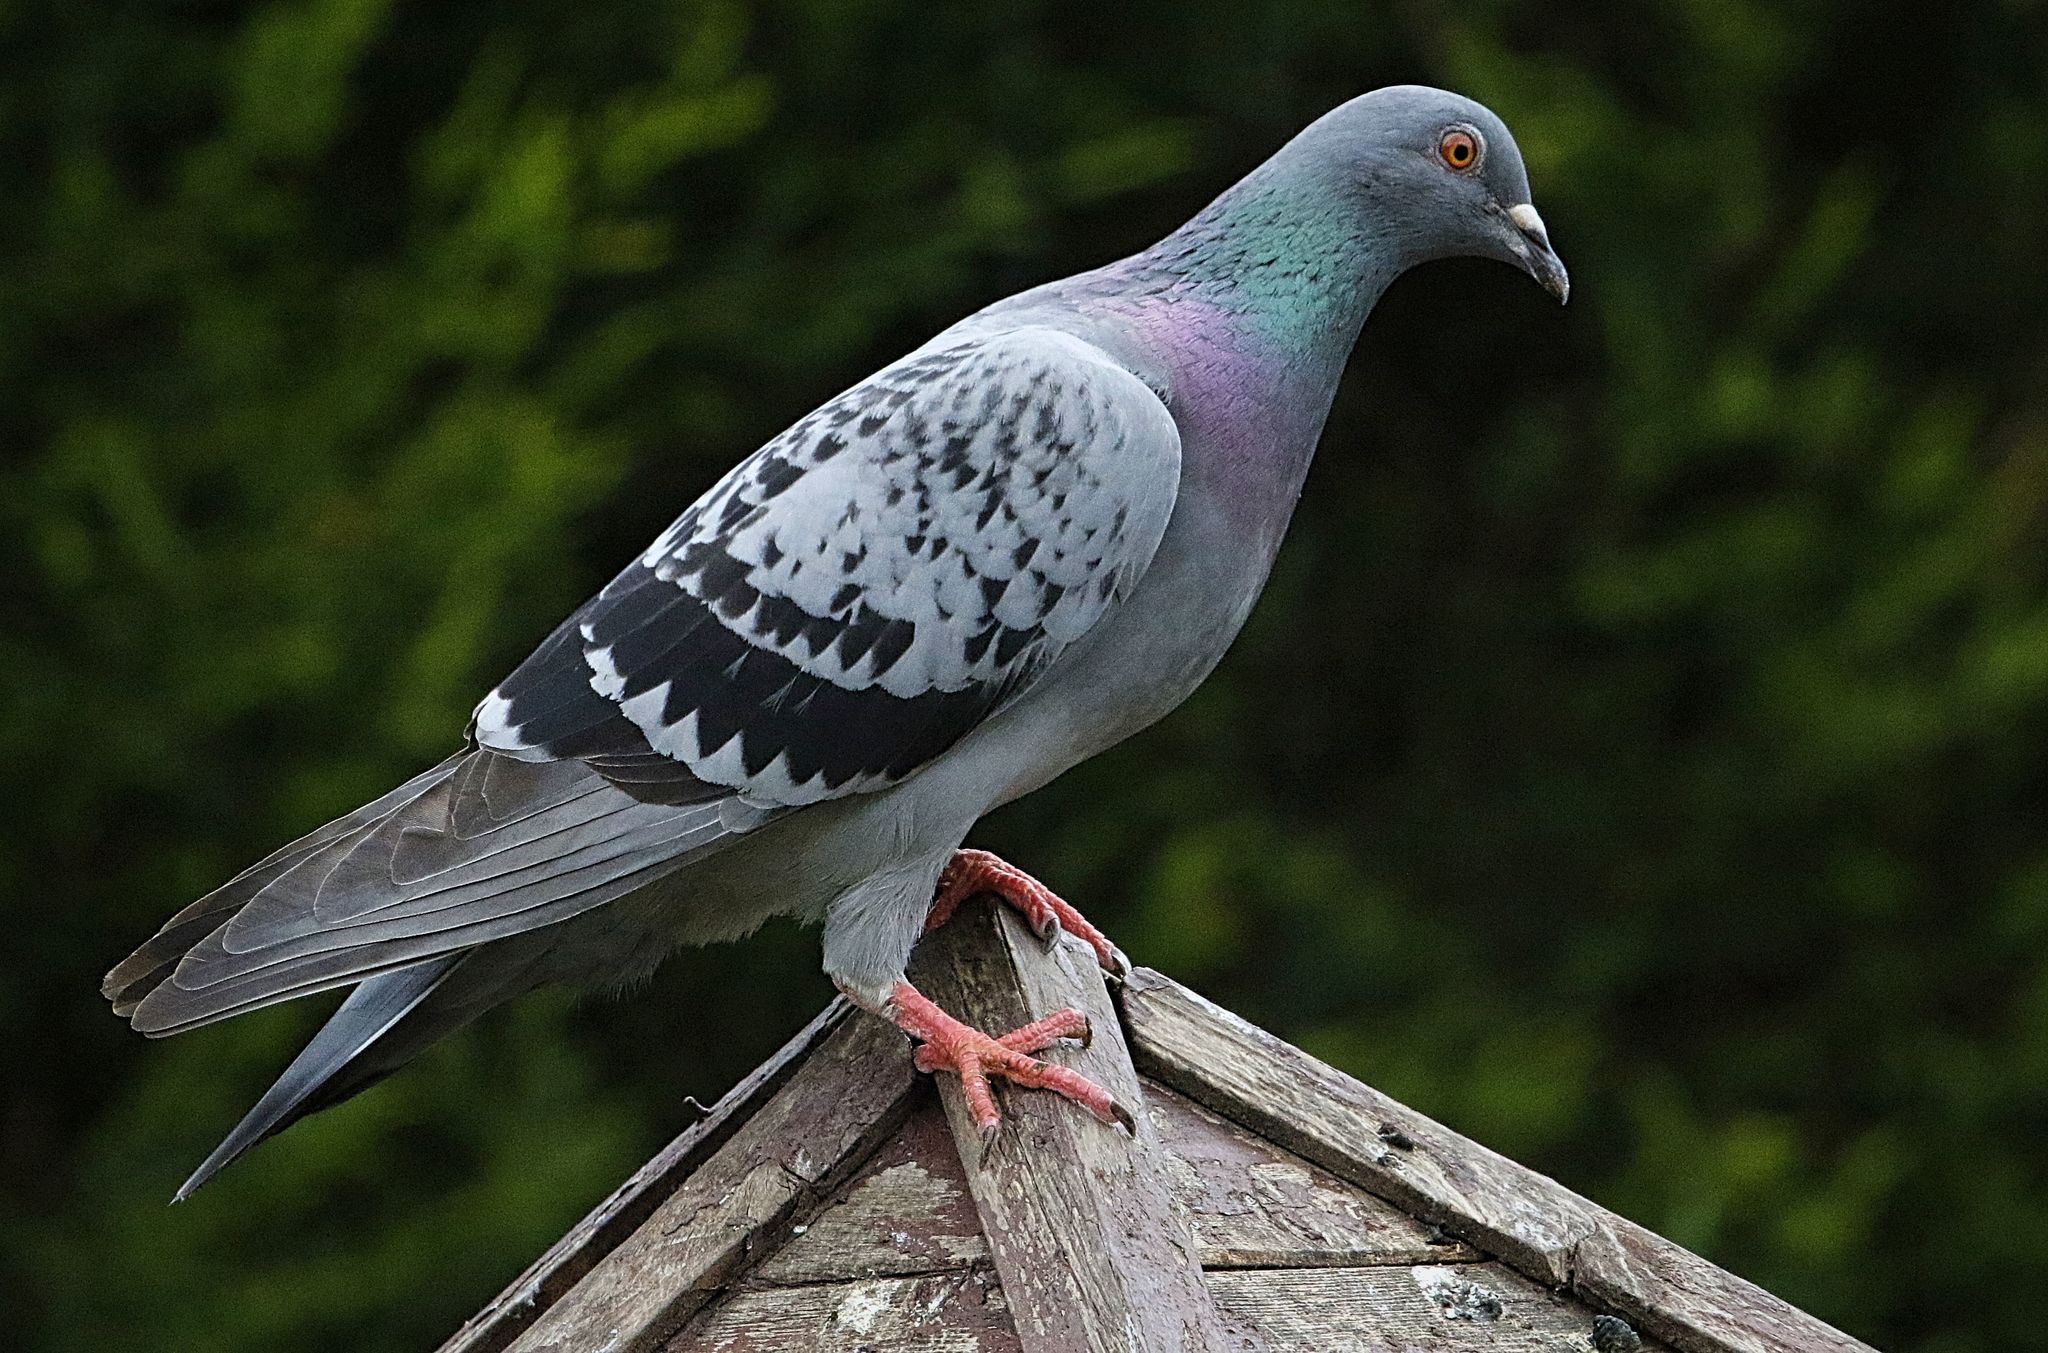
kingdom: Animalia
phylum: Chordata
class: Aves
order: Columbiformes
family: Columbidae
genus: Columba
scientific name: Columba livia
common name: Rock pigeon
